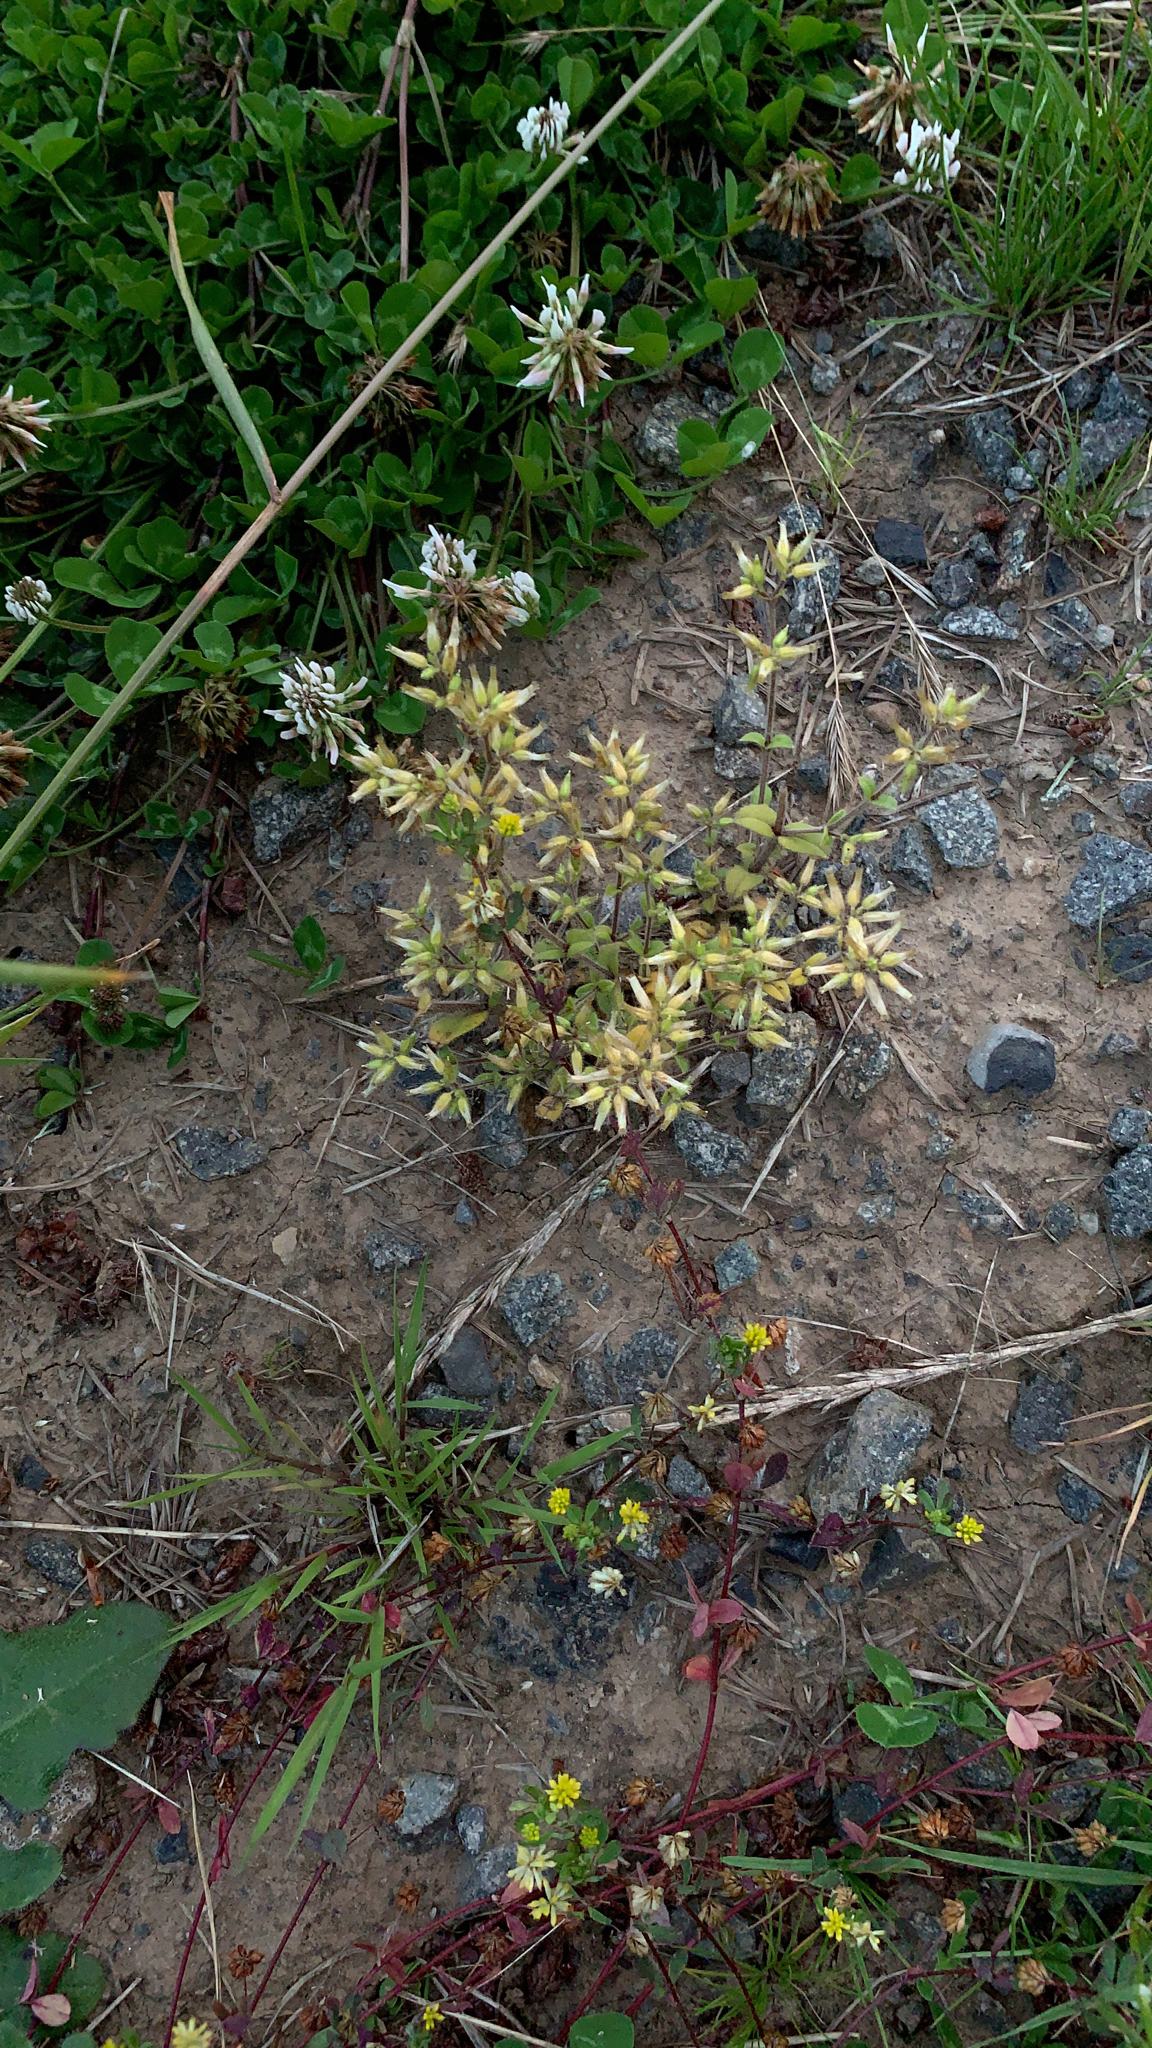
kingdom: Plantae
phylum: Tracheophyta
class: Magnoliopsida
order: Caryophyllales
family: Caryophyllaceae
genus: Cerastium
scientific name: Cerastium glomeratum
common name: Sticky chickweed
